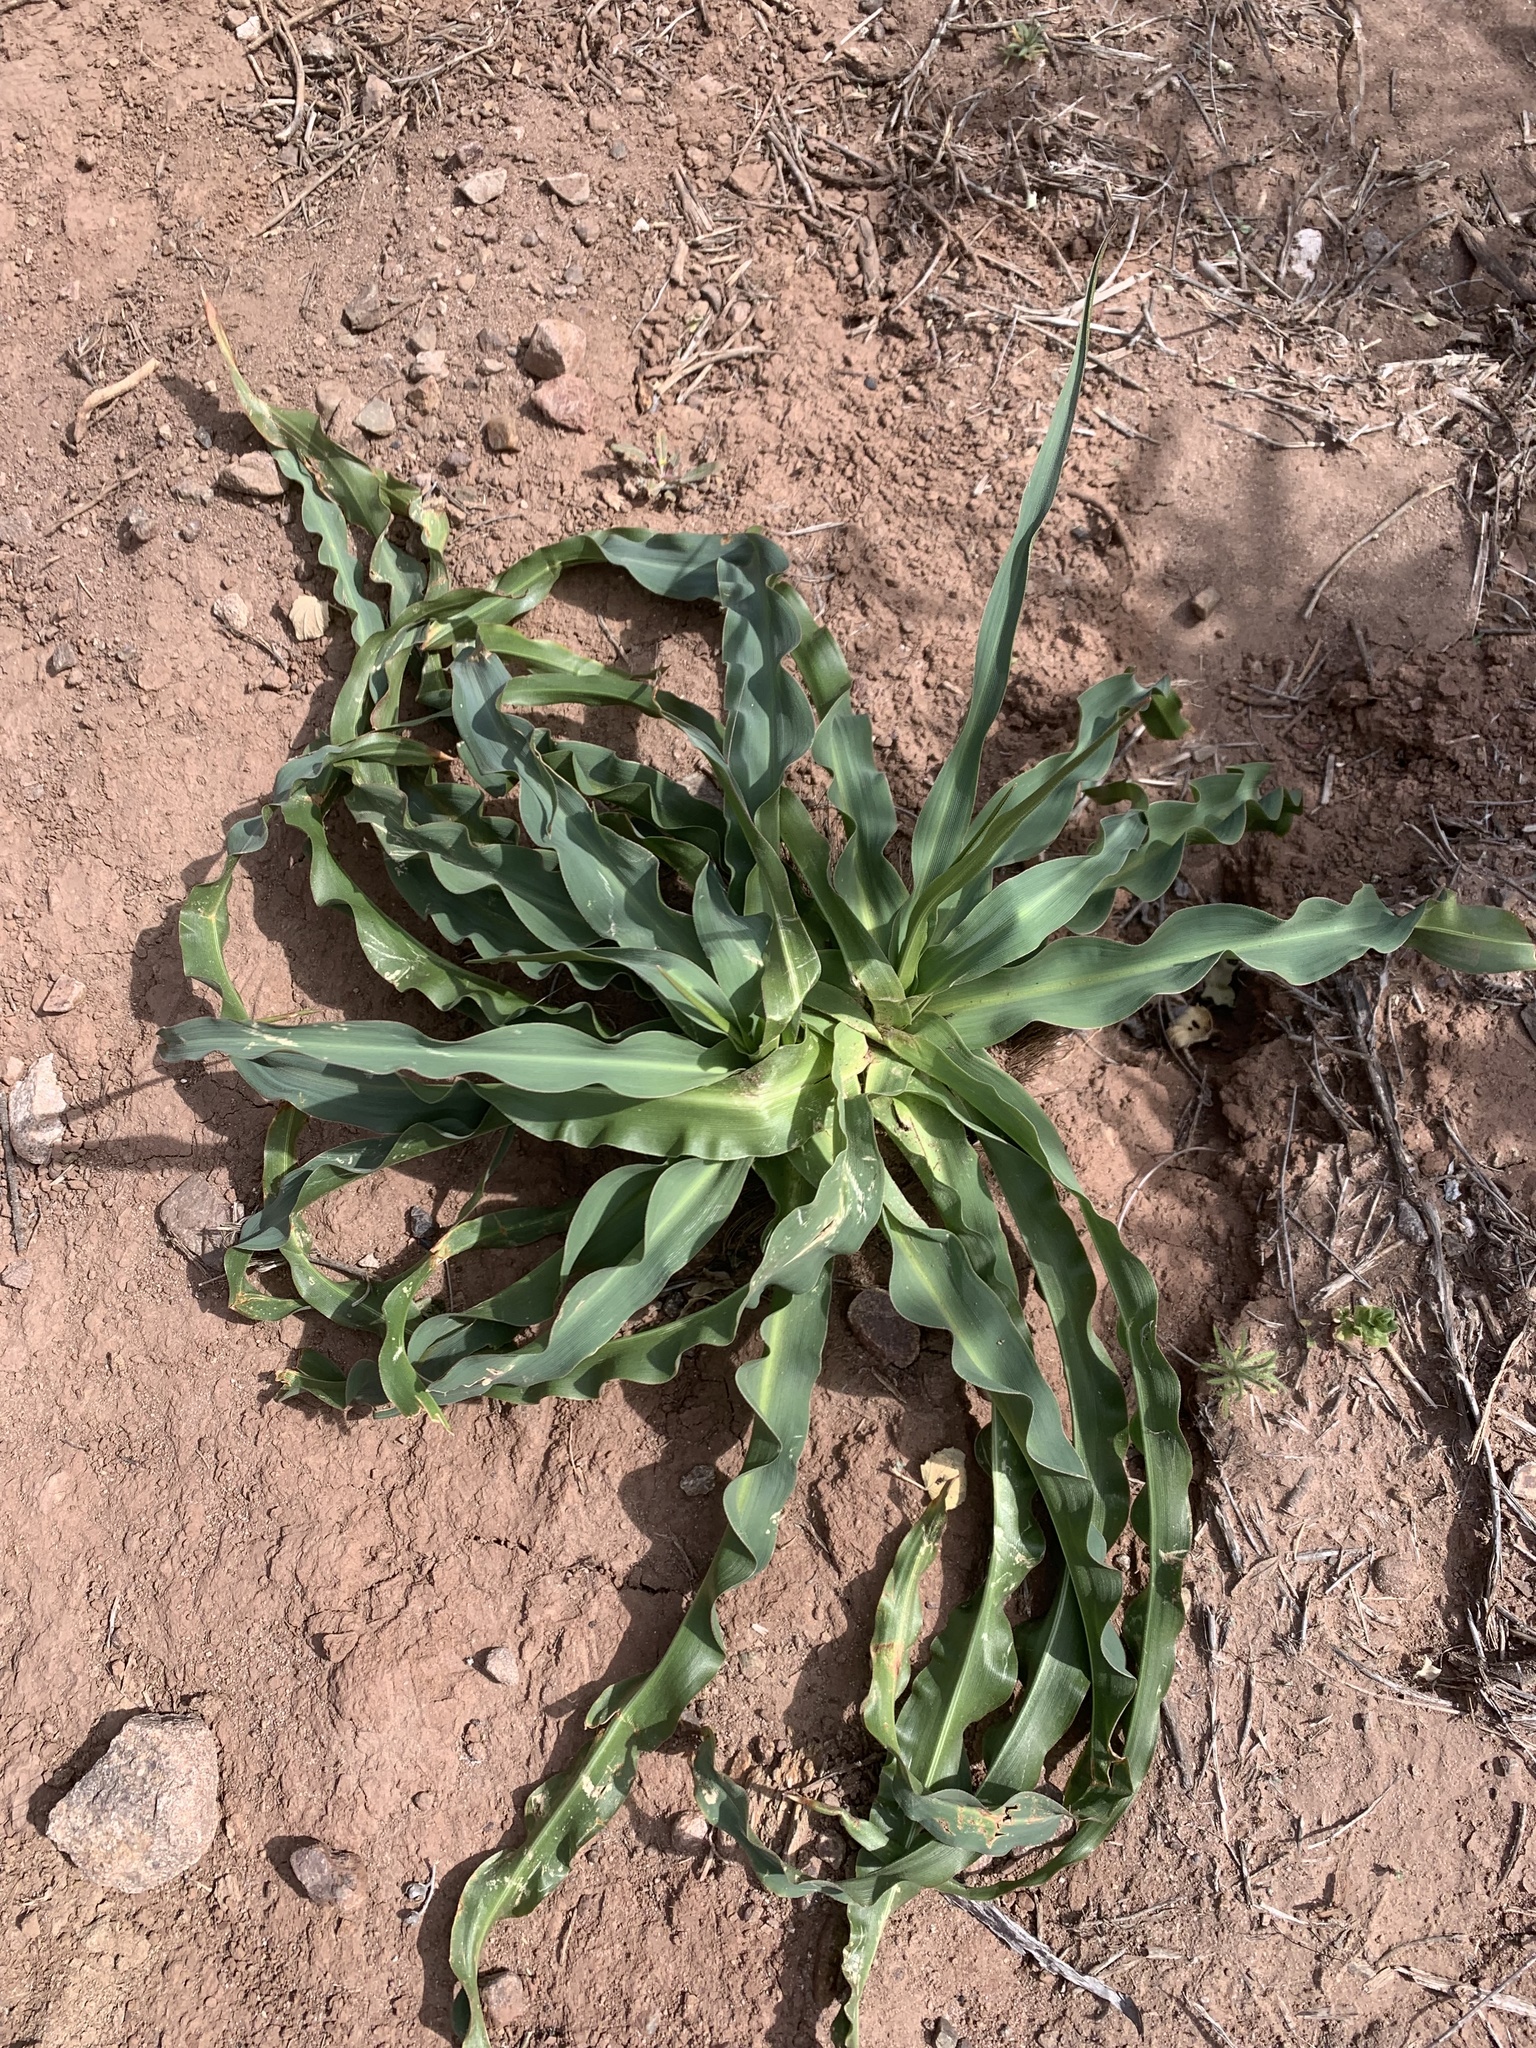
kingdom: Plantae
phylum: Tracheophyta
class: Liliopsida
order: Asparagales
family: Asparagaceae
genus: Chlorogalum
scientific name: Chlorogalum pomeridianum
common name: Amole
